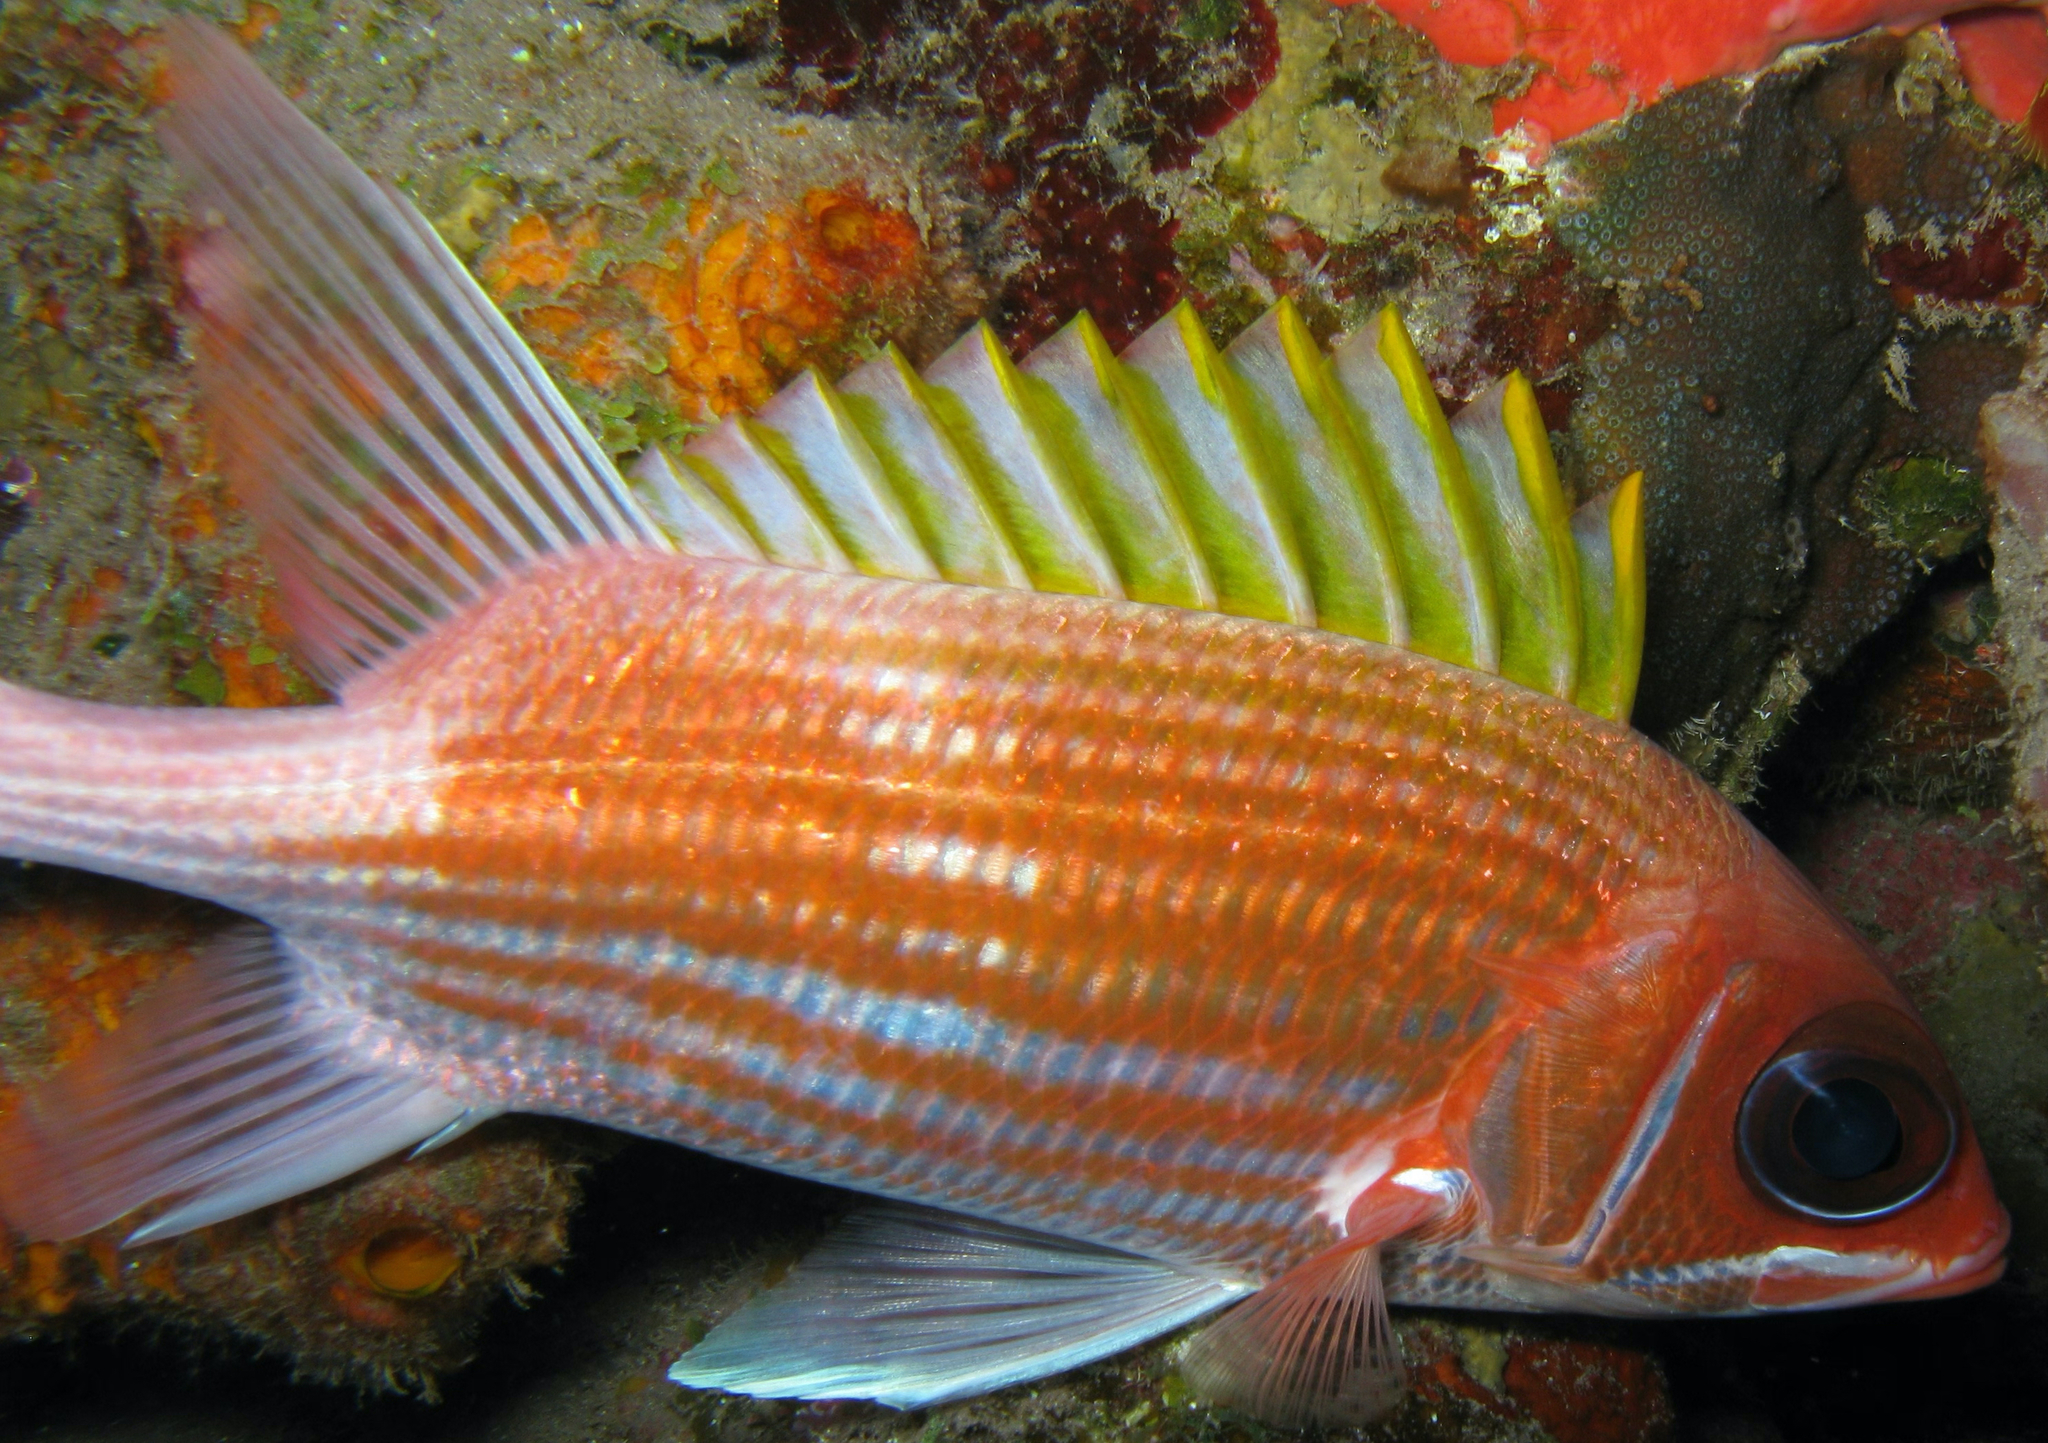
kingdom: Animalia
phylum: Chordata
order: Beryciformes
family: Holocentridae
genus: Holocentrus
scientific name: Holocentrus adscensionis
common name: Squirrelfish
